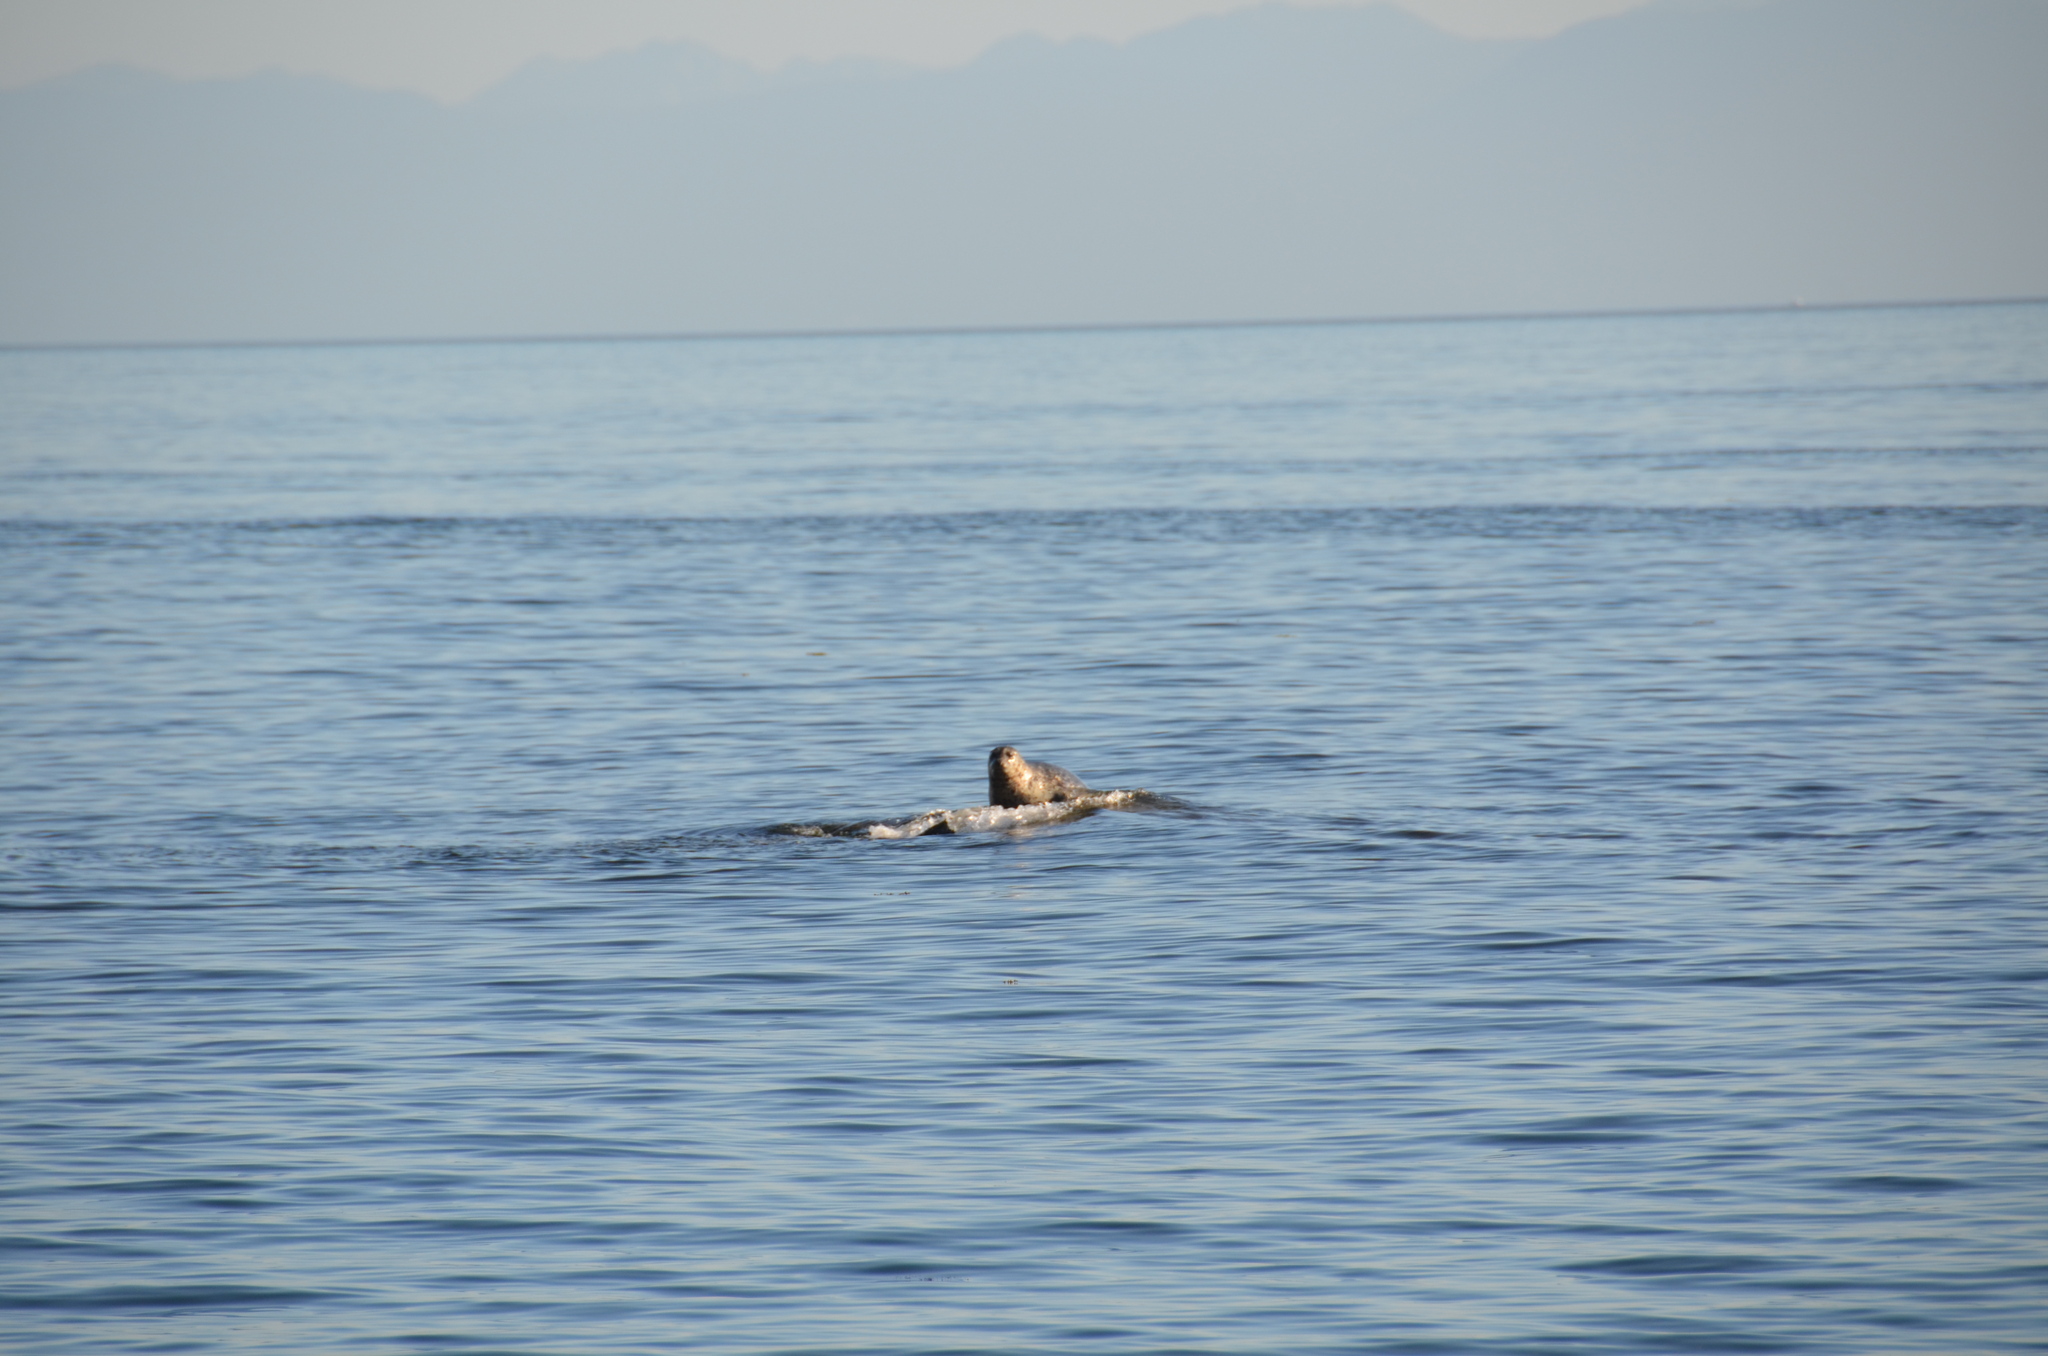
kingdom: Animalia
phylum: Chordata
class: Mammalia
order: Carnivora
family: Phocidae
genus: Phoca
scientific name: Phoca vitulina
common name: Harbor seal
